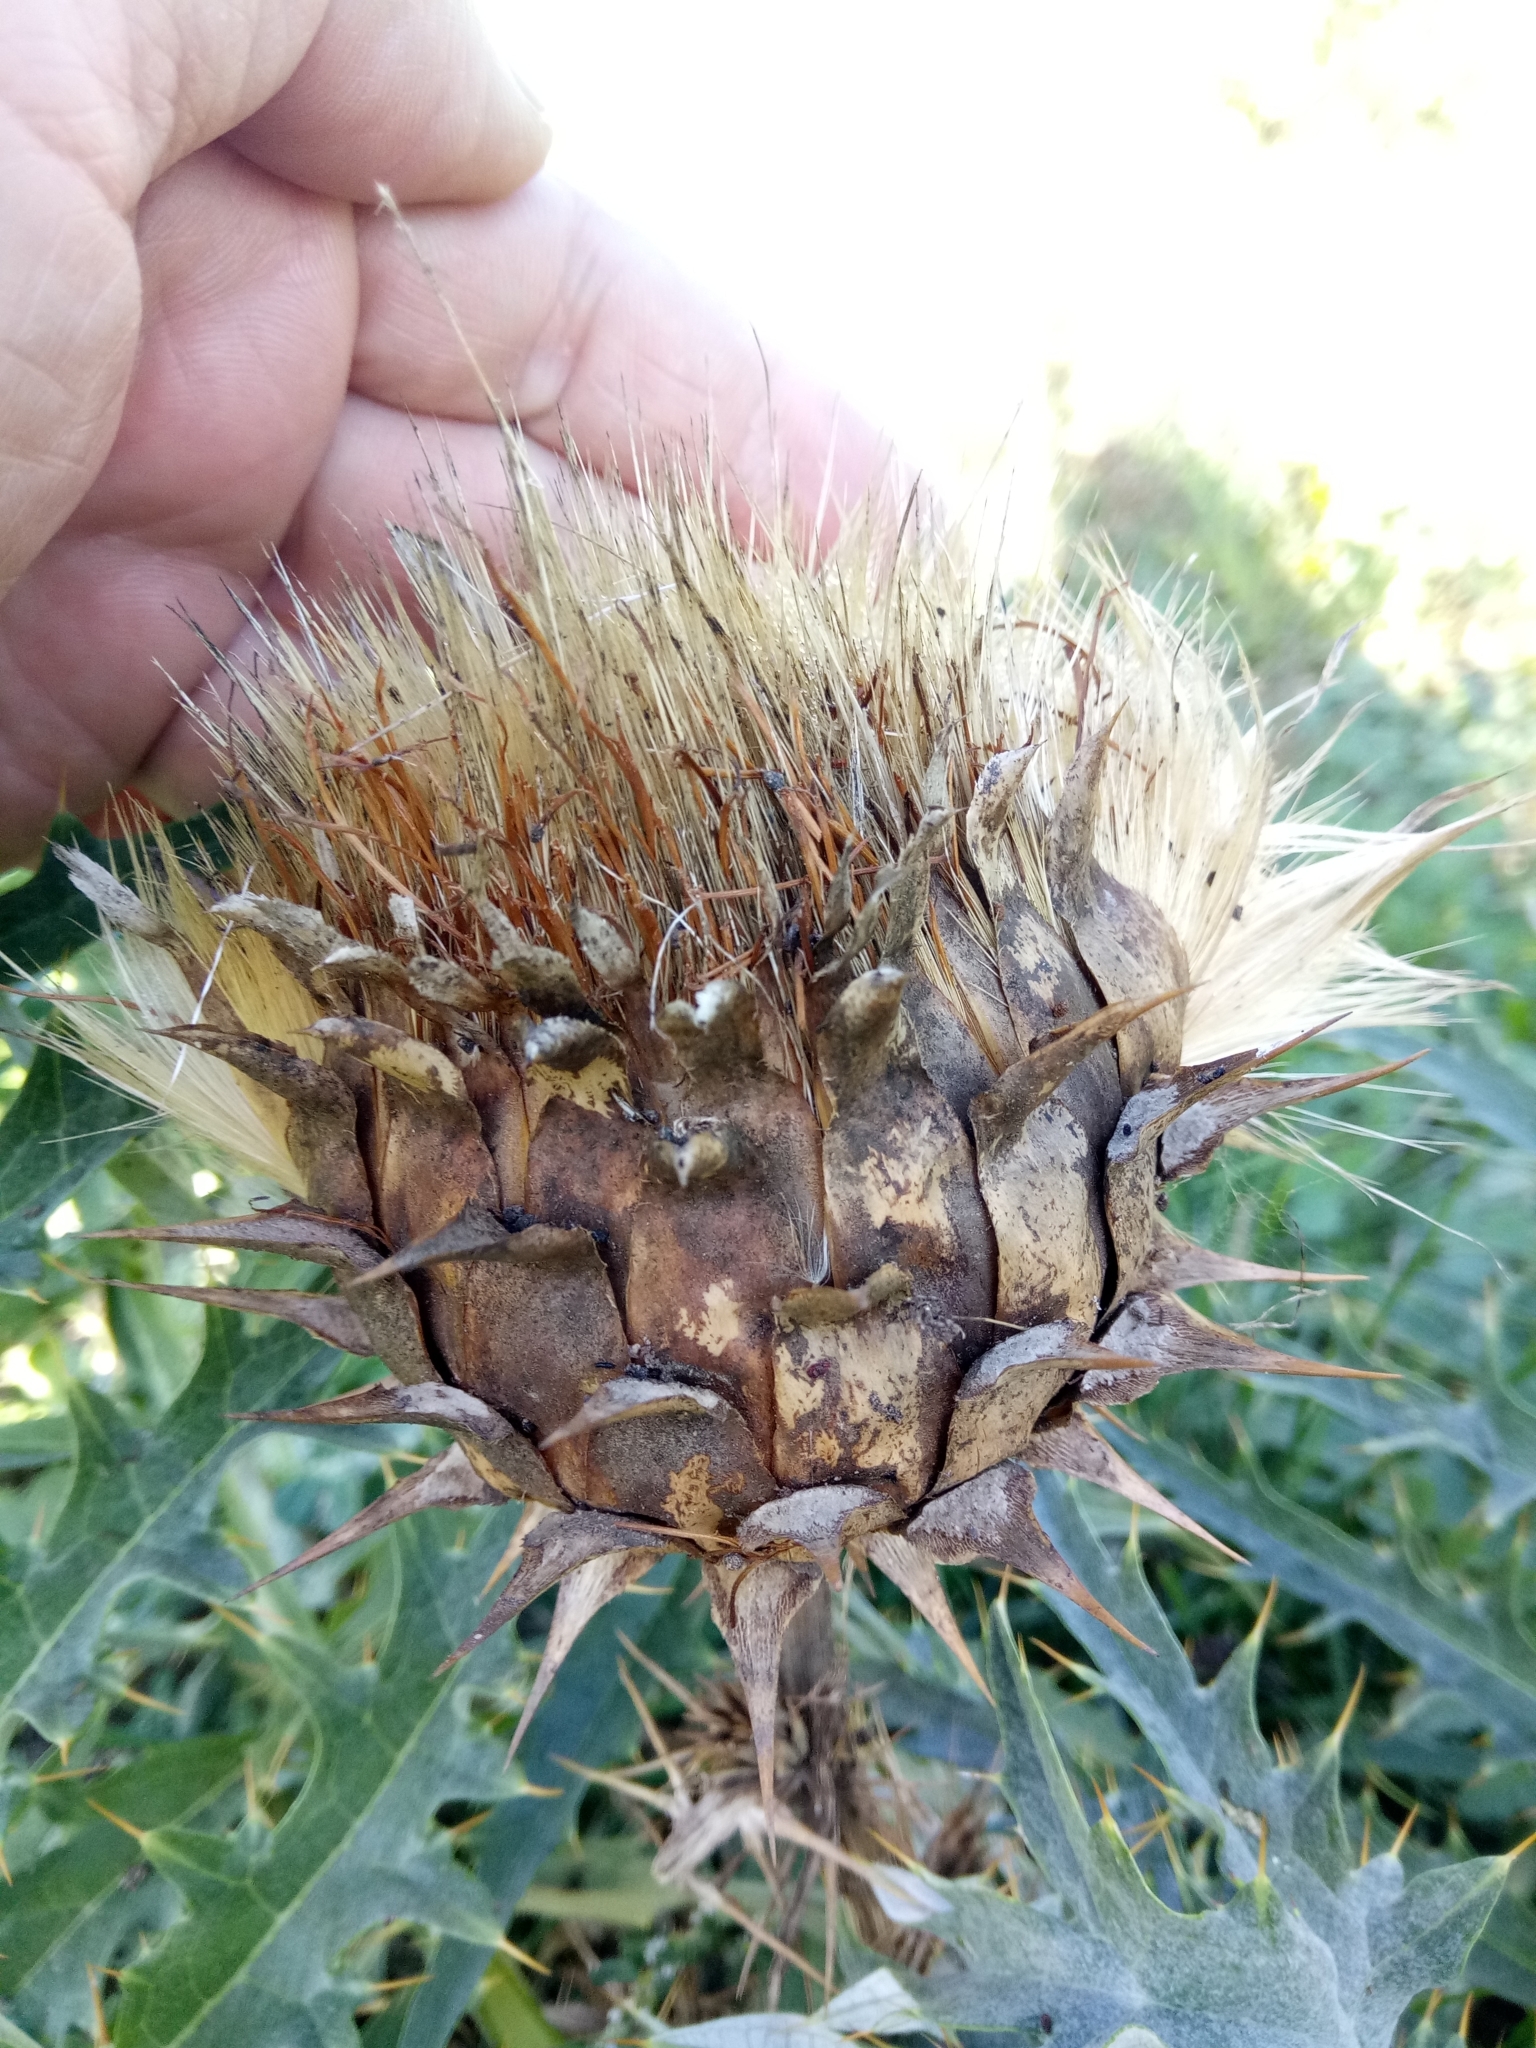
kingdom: Plantae
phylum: Tracheophyta
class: Magnoliopsida
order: Asterales
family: Asteraceae
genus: Cynara
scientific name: Cynara cardunculus
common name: Globe artichoke
